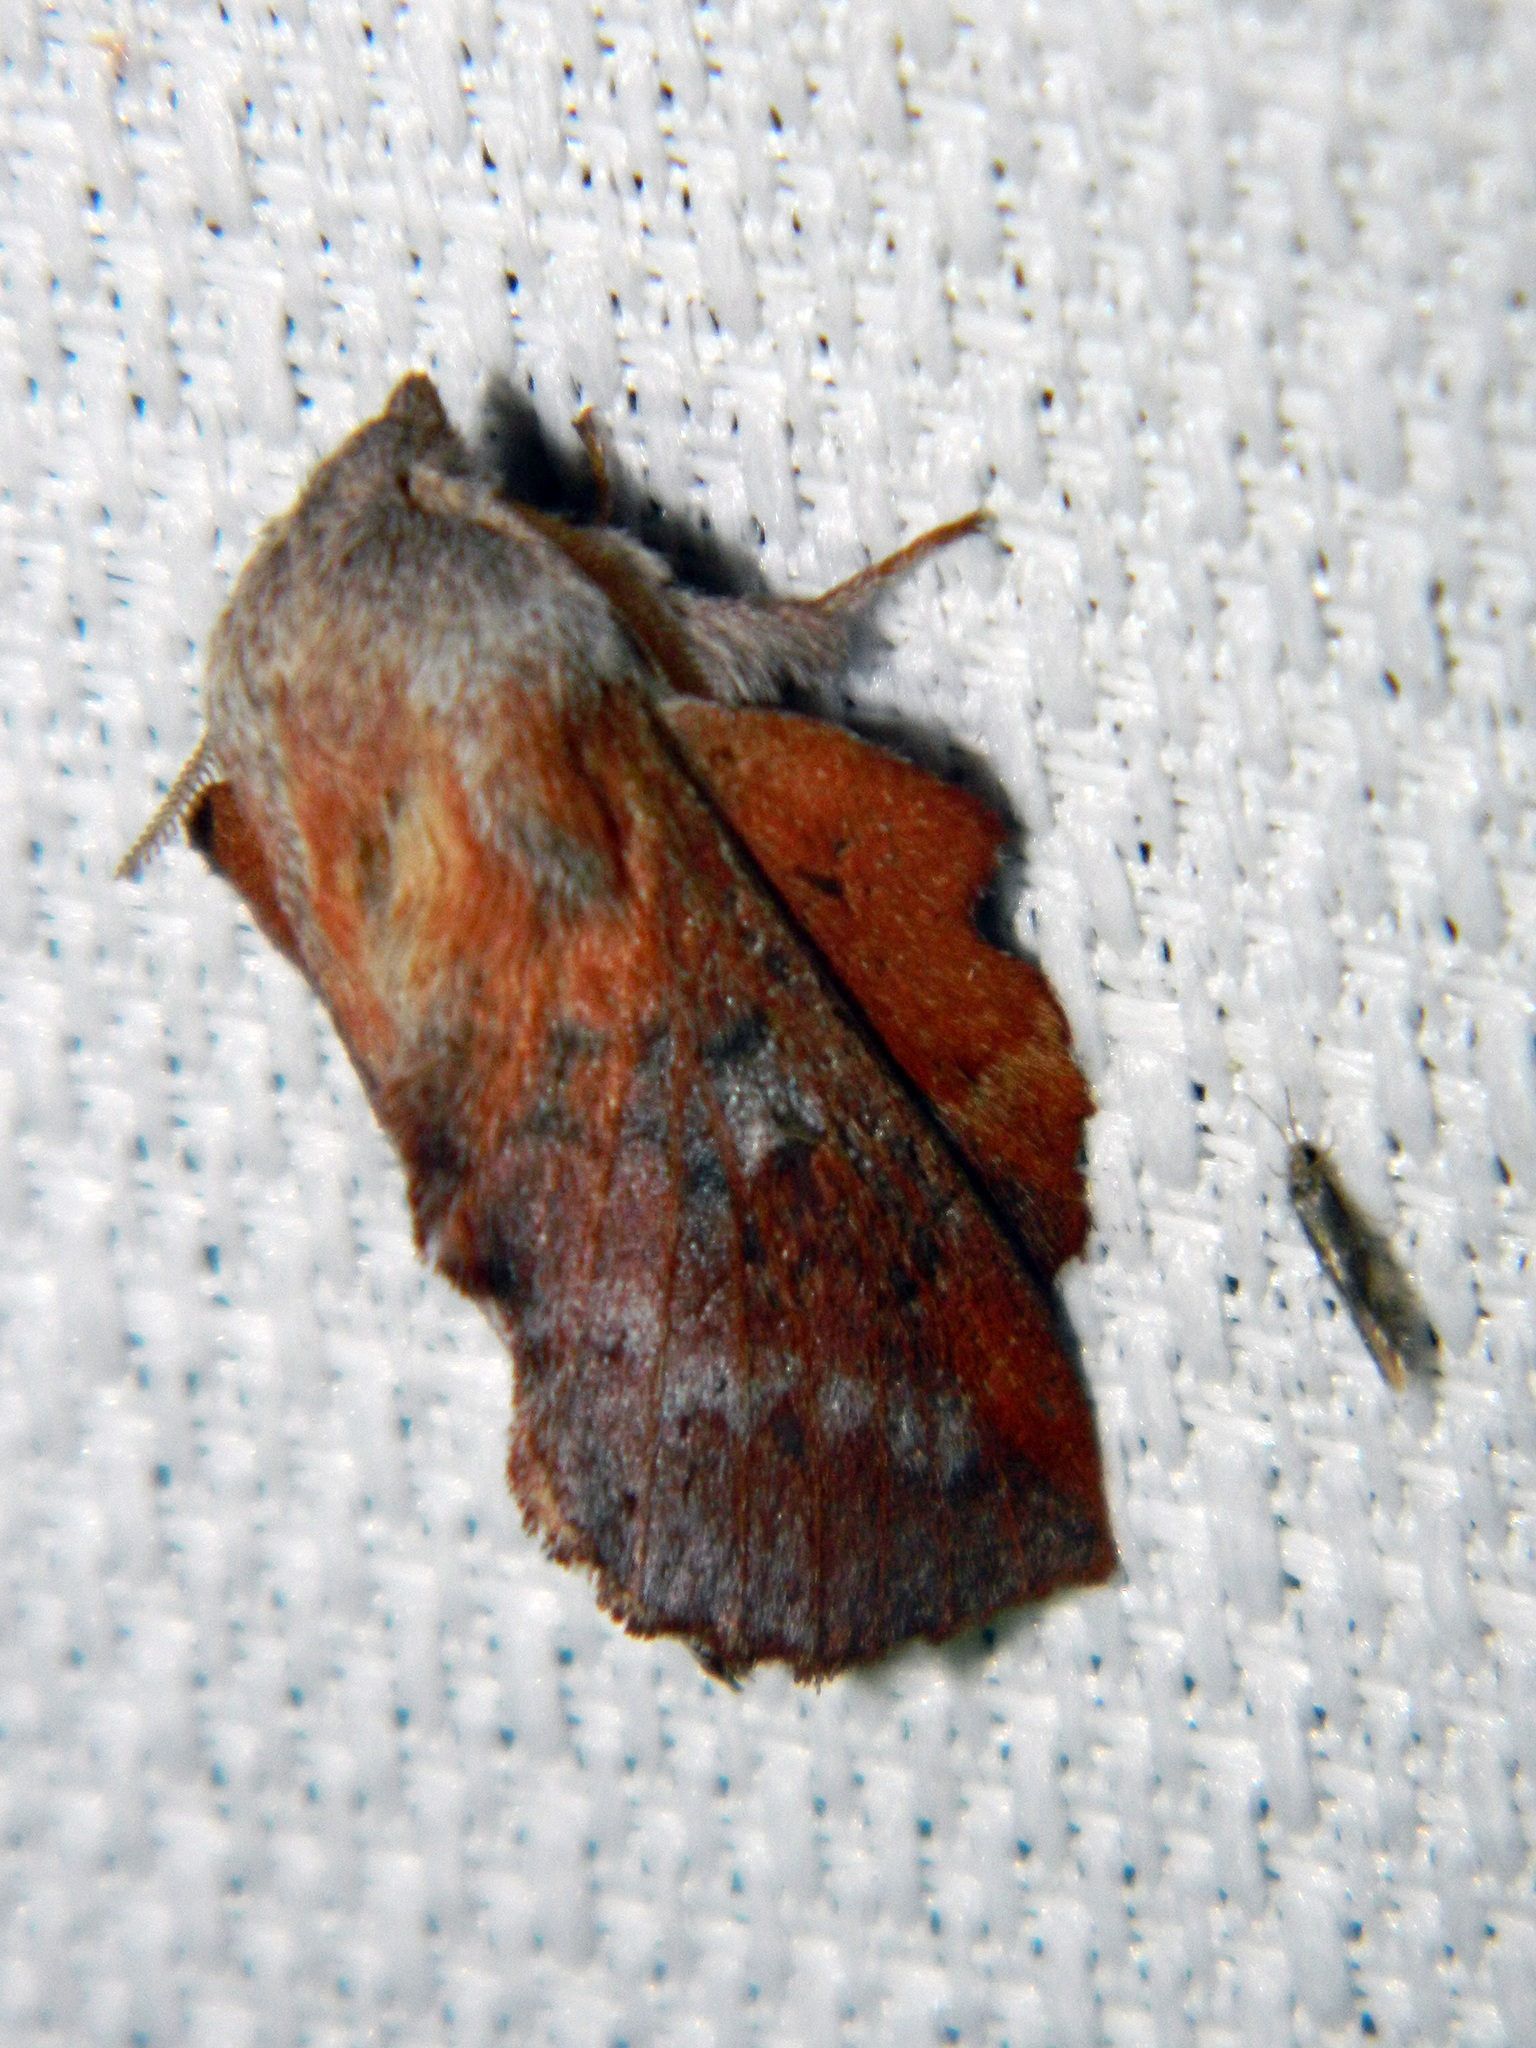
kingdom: Animalia
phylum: Arthropoda
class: Insecta
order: Lepidoptera
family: Lasiocampidae
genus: Phyllodesma
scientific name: Phyllodesma americana
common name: American lappet moth
